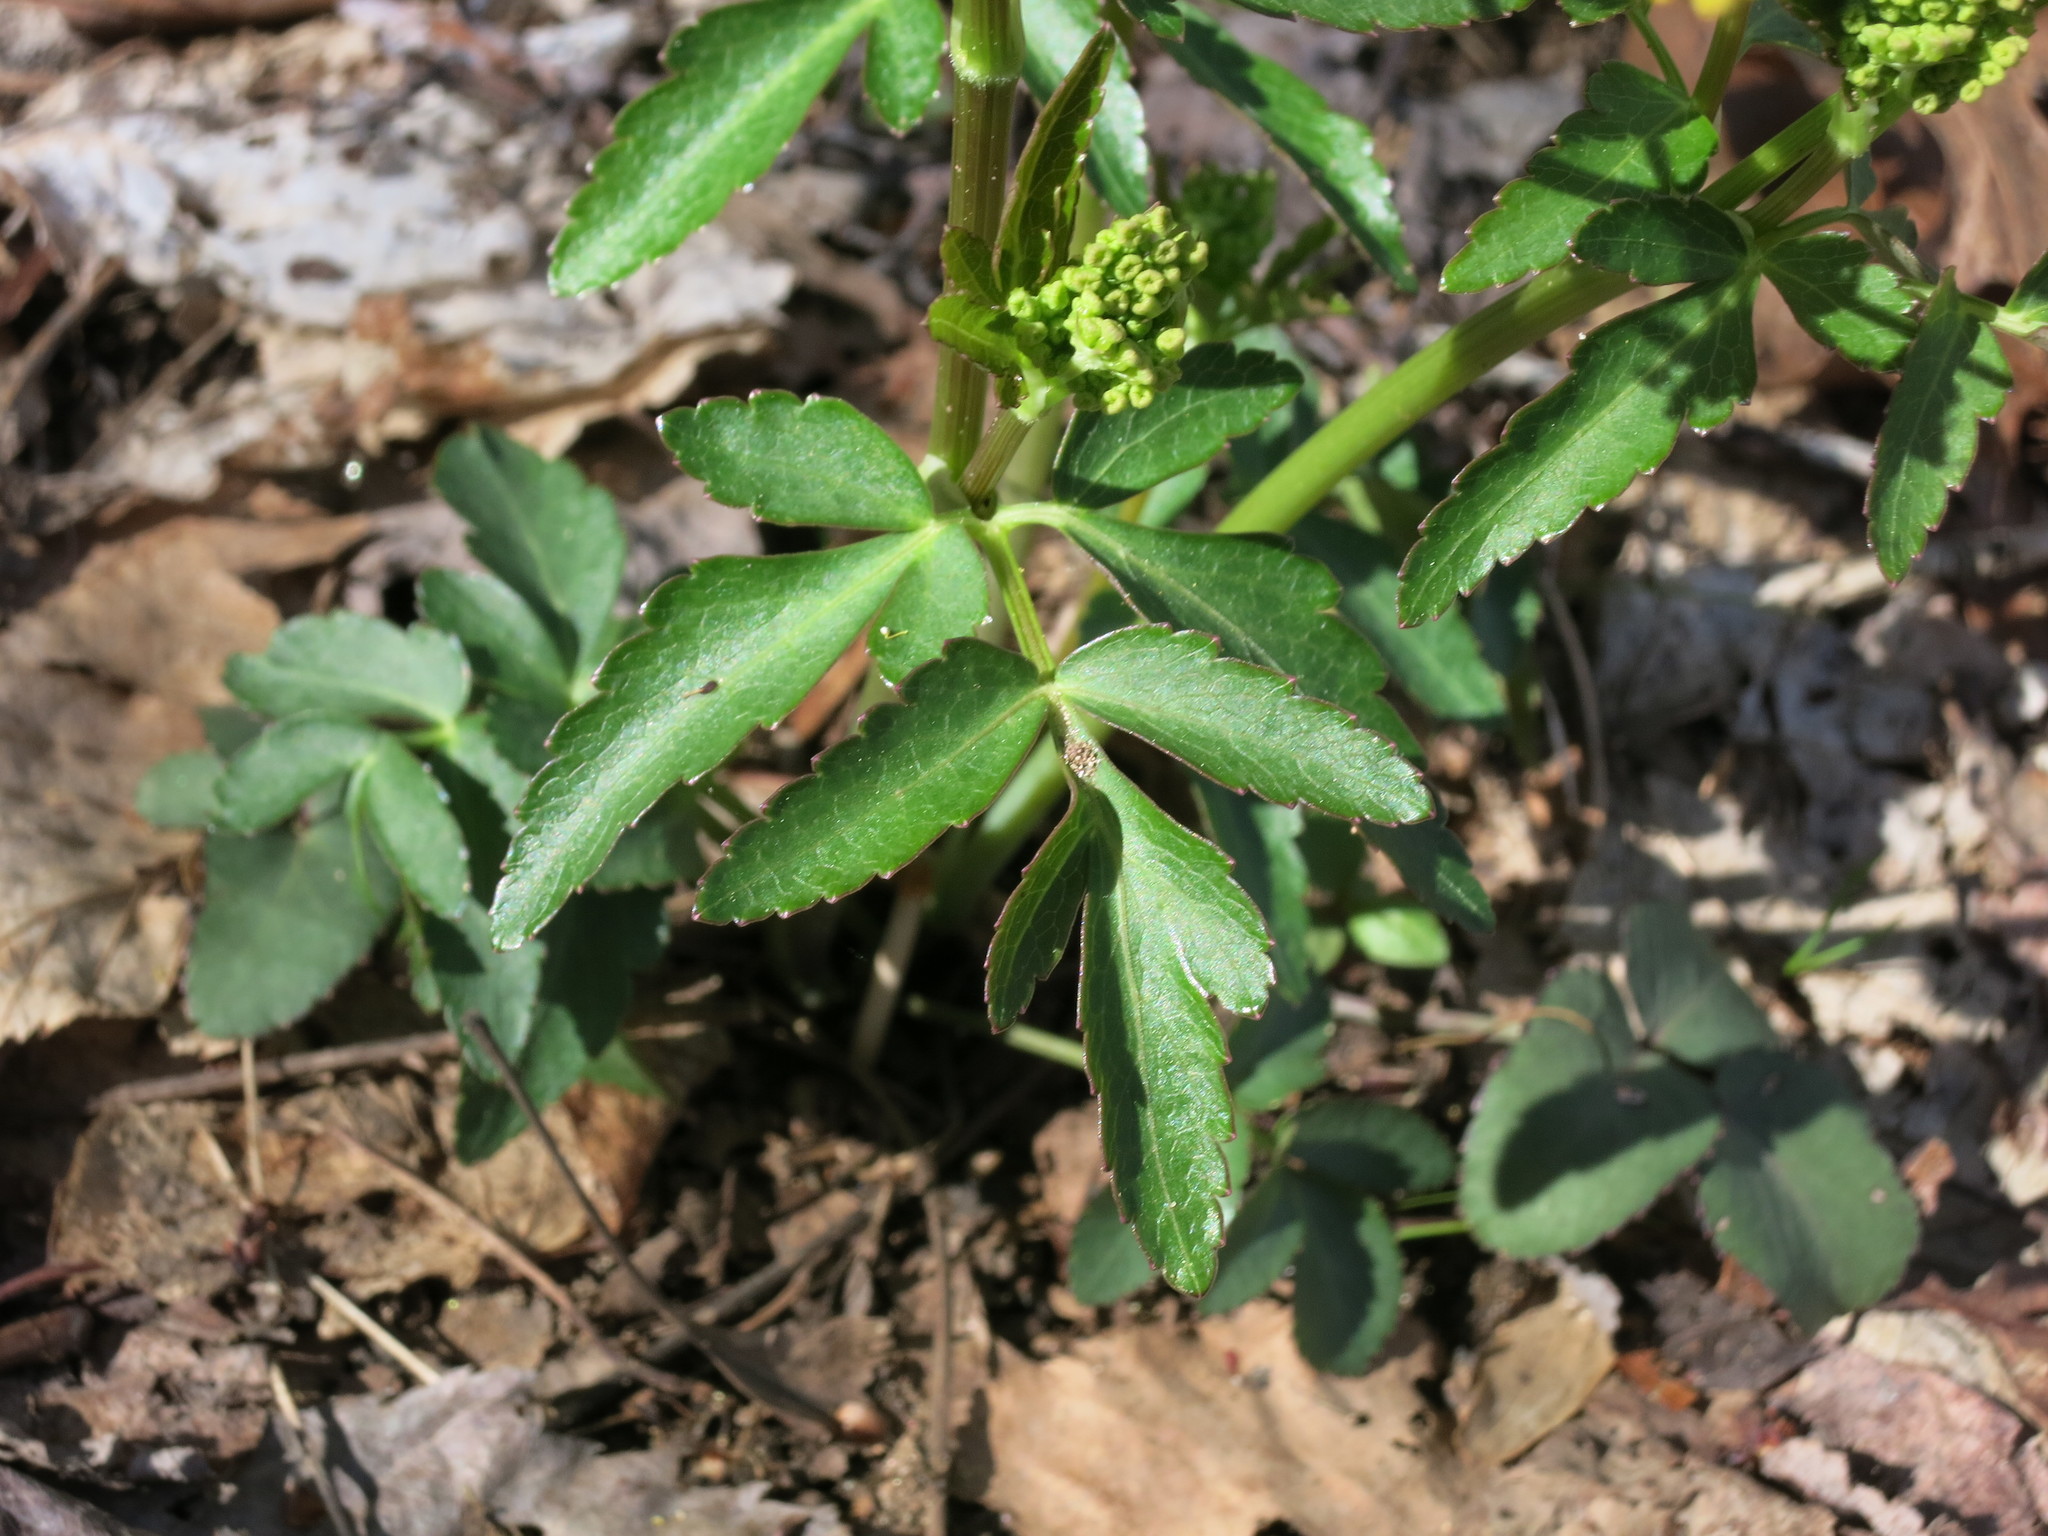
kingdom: Plantae
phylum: Tracheophyta
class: Magnoliopsida
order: Apiales
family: Apiaceae
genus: Zizia
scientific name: Zizia aurea
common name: Golden alexanders
